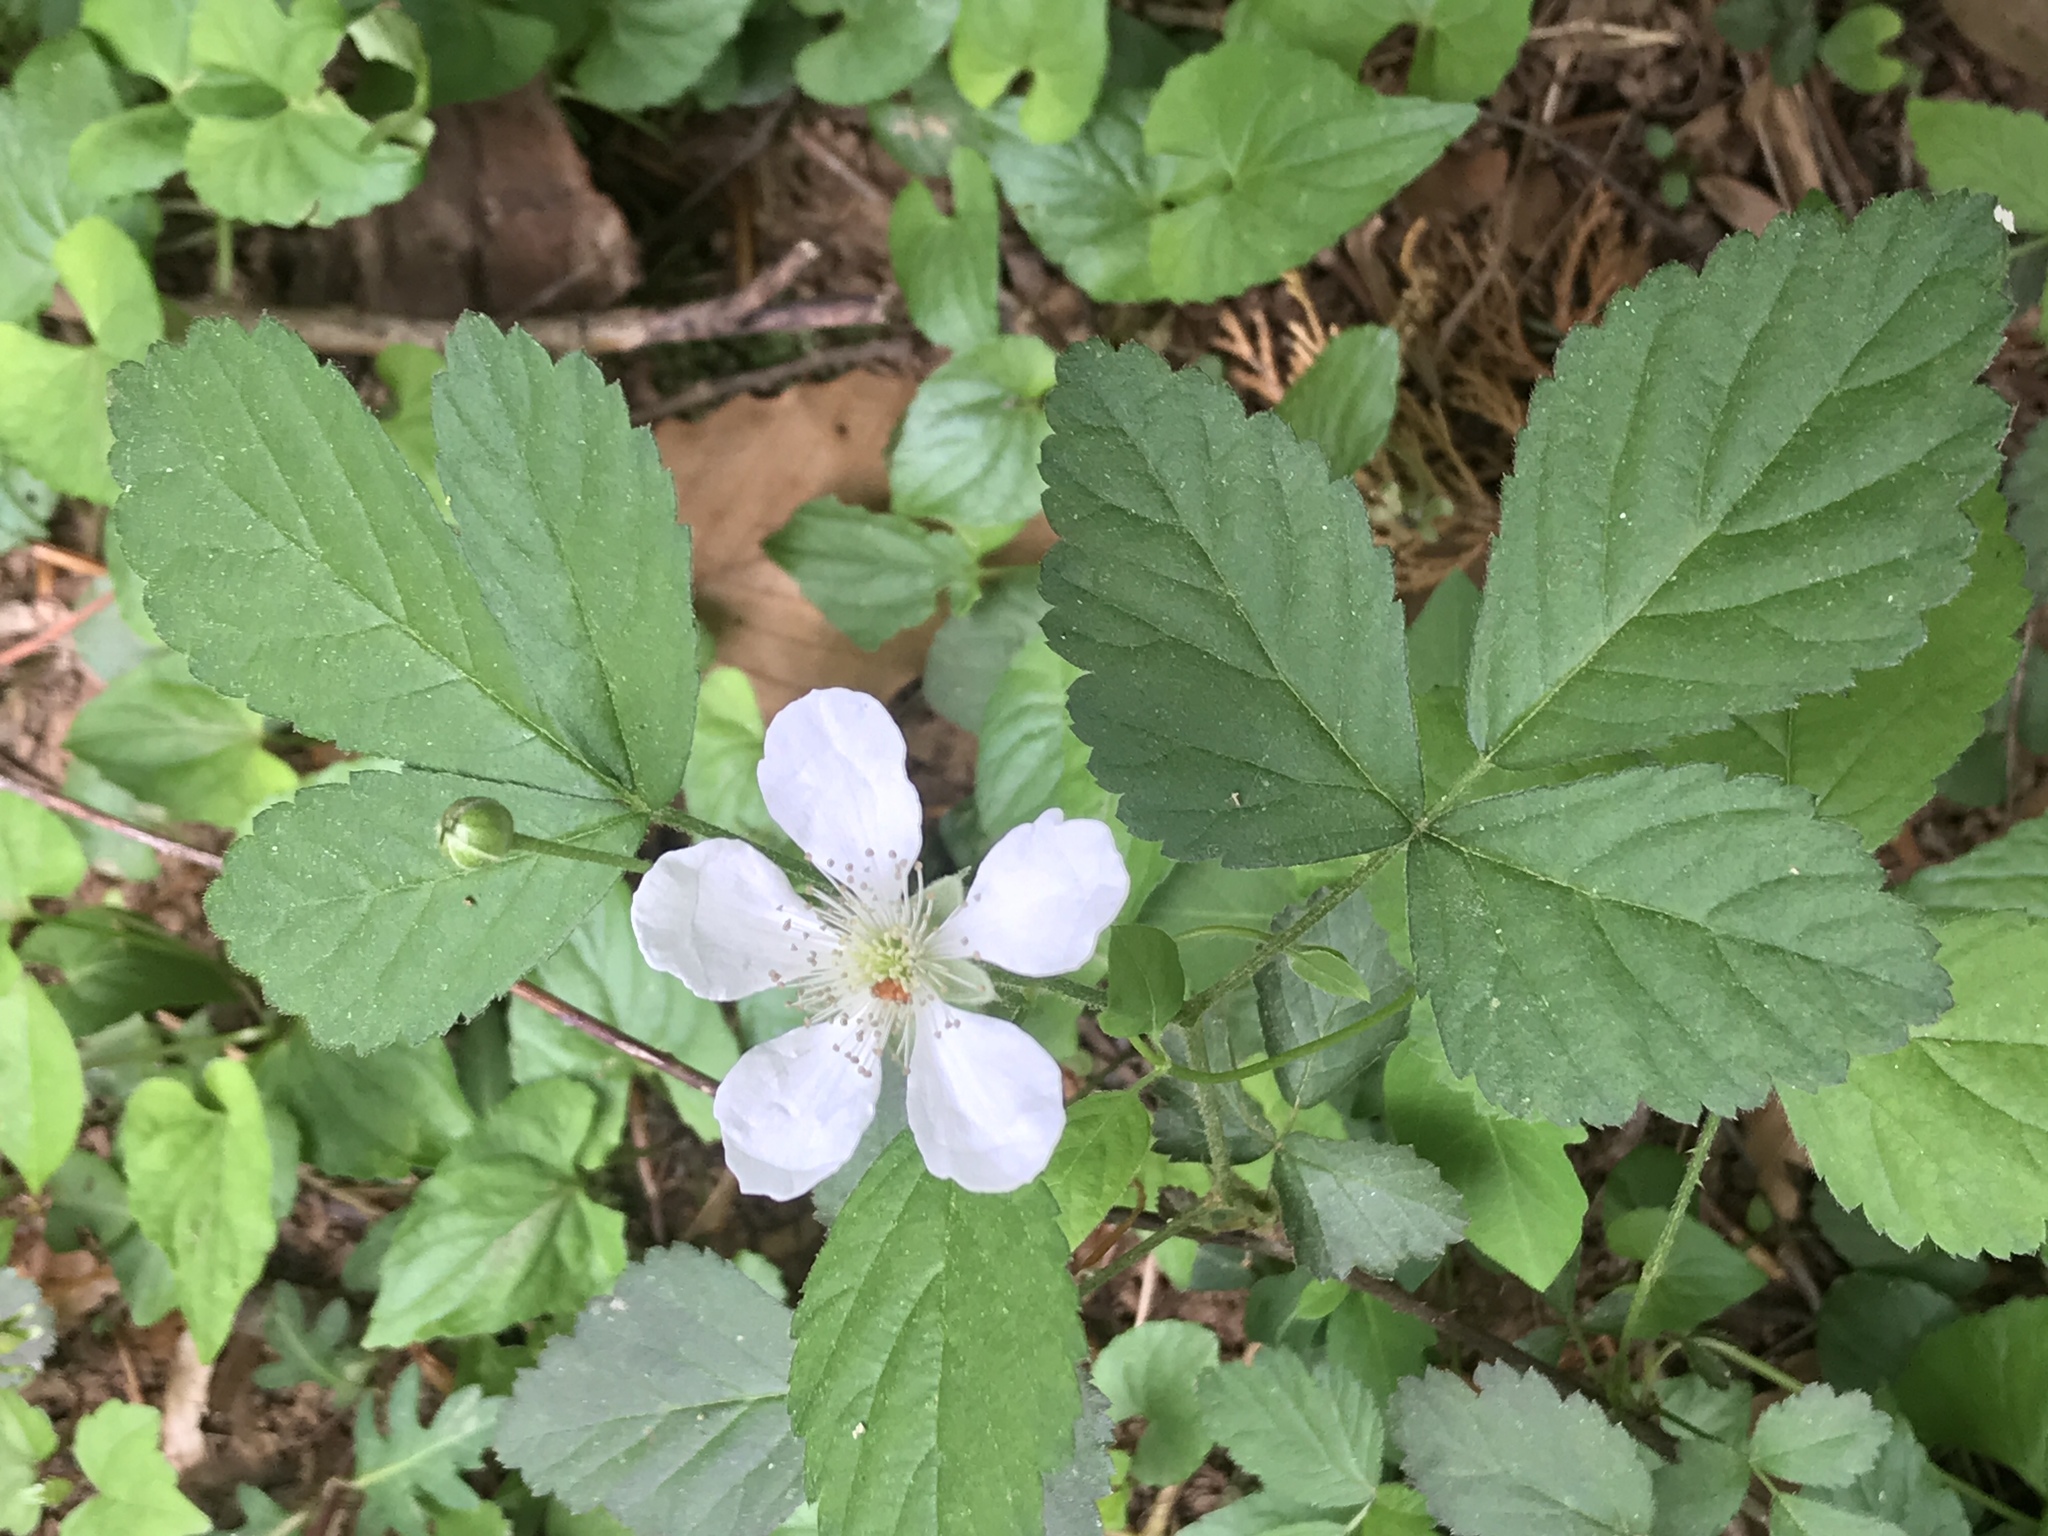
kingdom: Plantae
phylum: Tracheophyta
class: Magnoliopsida
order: Rosales
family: Rosaceae
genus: Rubus
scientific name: Rubus flagellaris
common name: American dewberry
